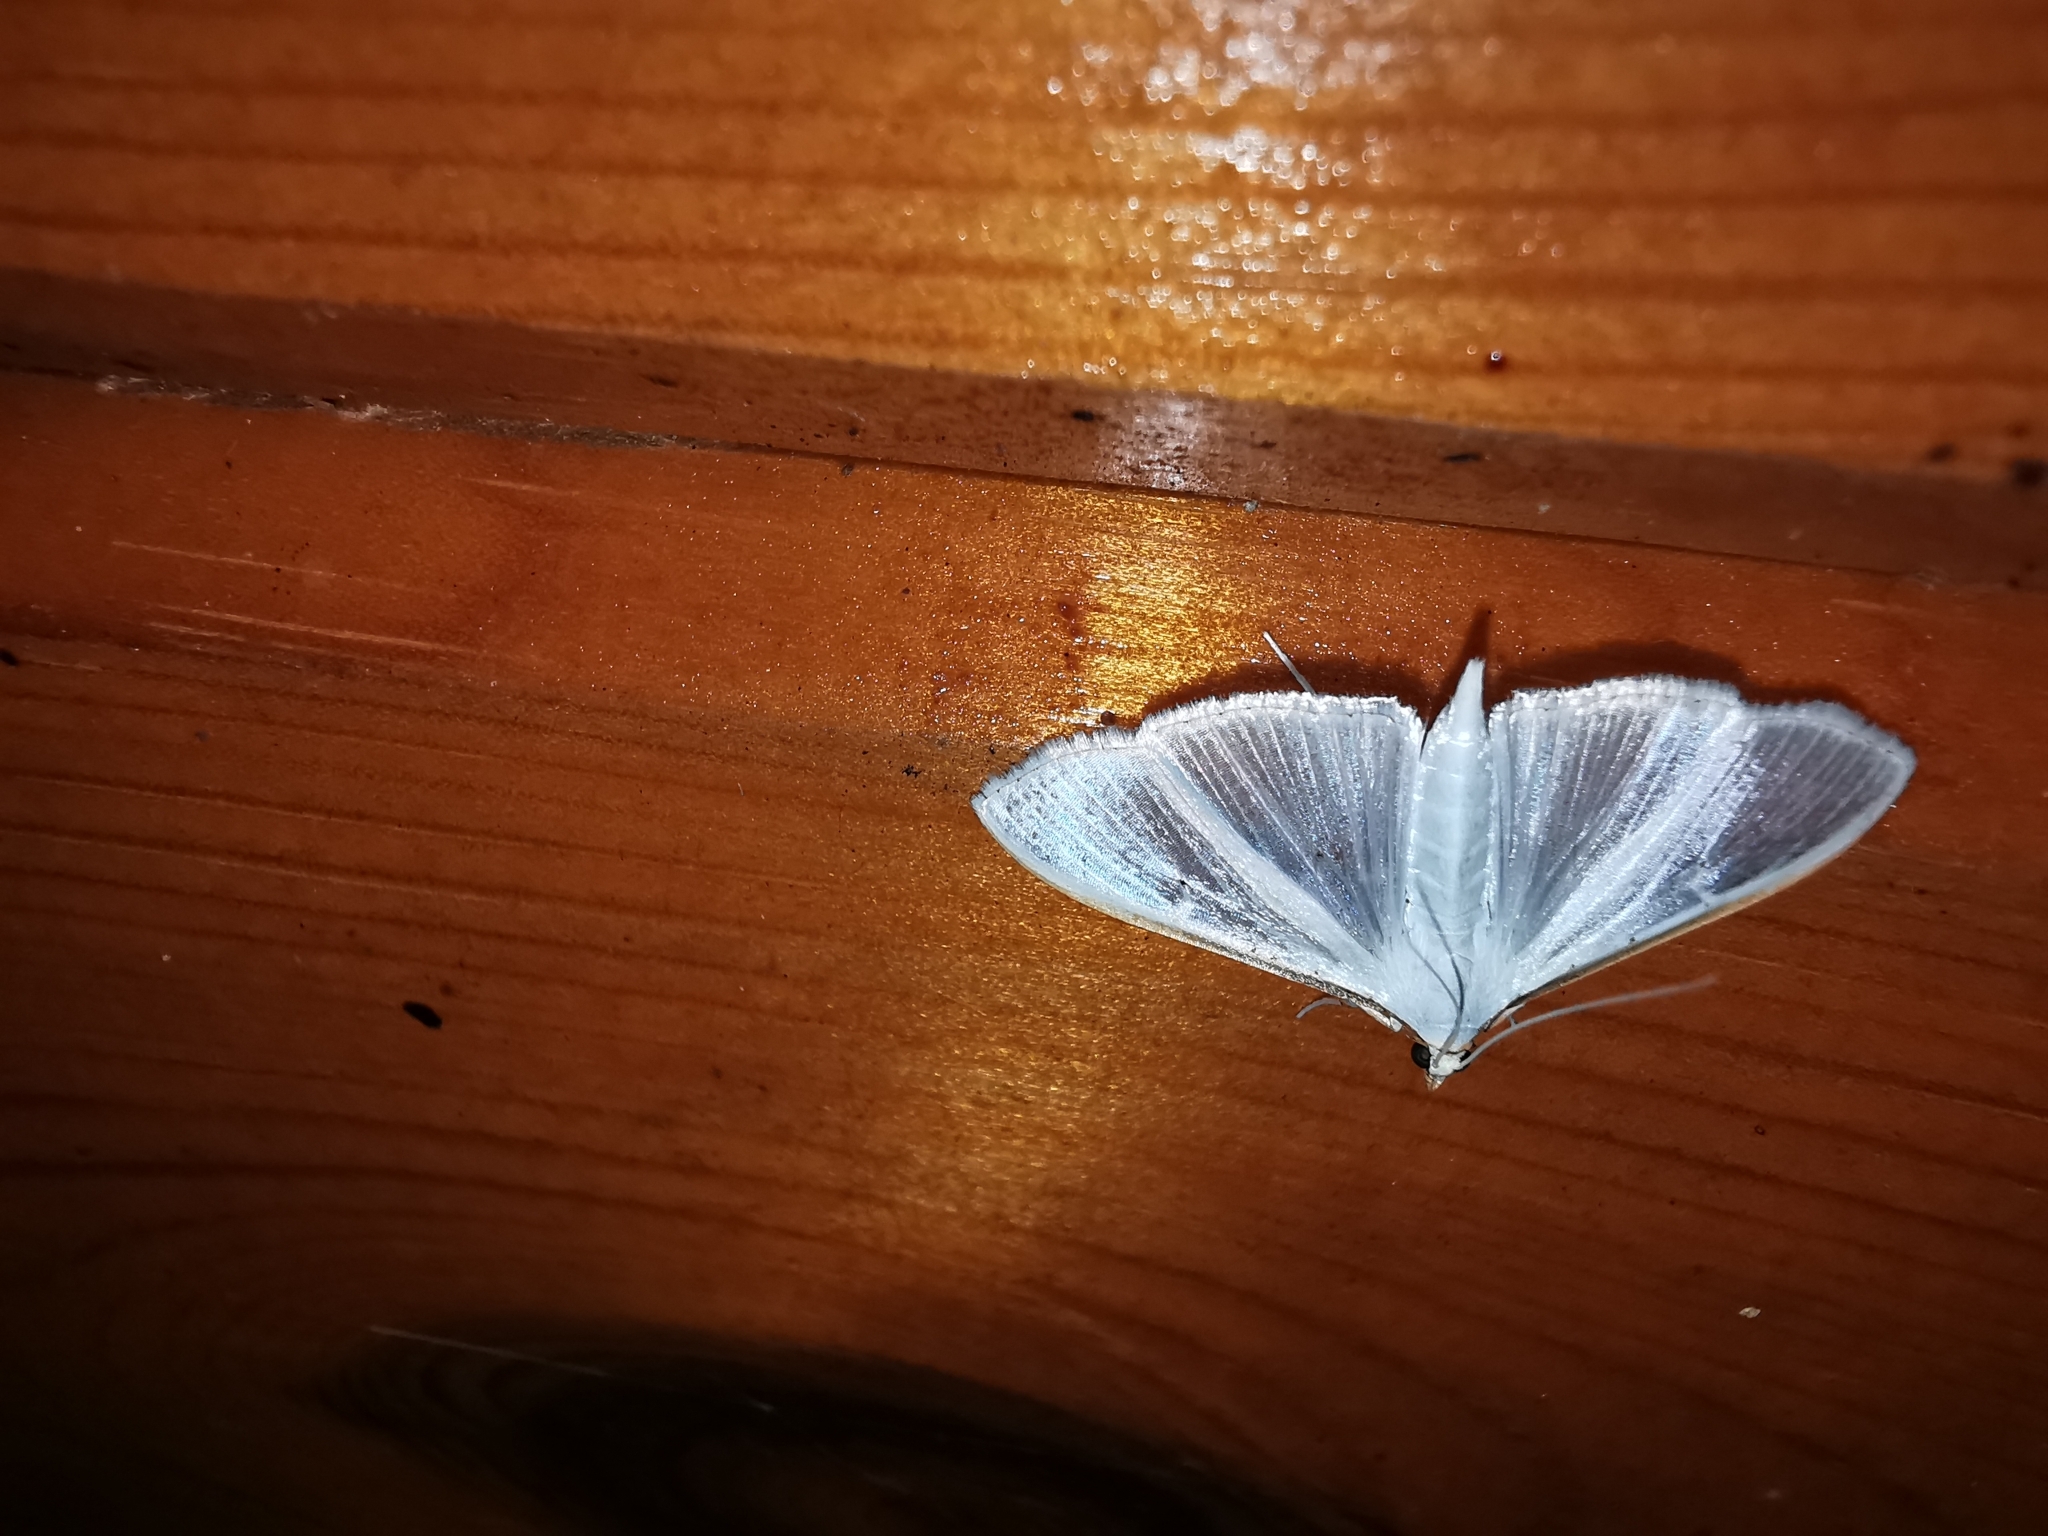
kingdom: Animalia
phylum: Arthropoda
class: Insecta
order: Lepidoptera
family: Crambidae
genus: Palpita
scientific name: Palpita vitrealis
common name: Olive-tree pearl
